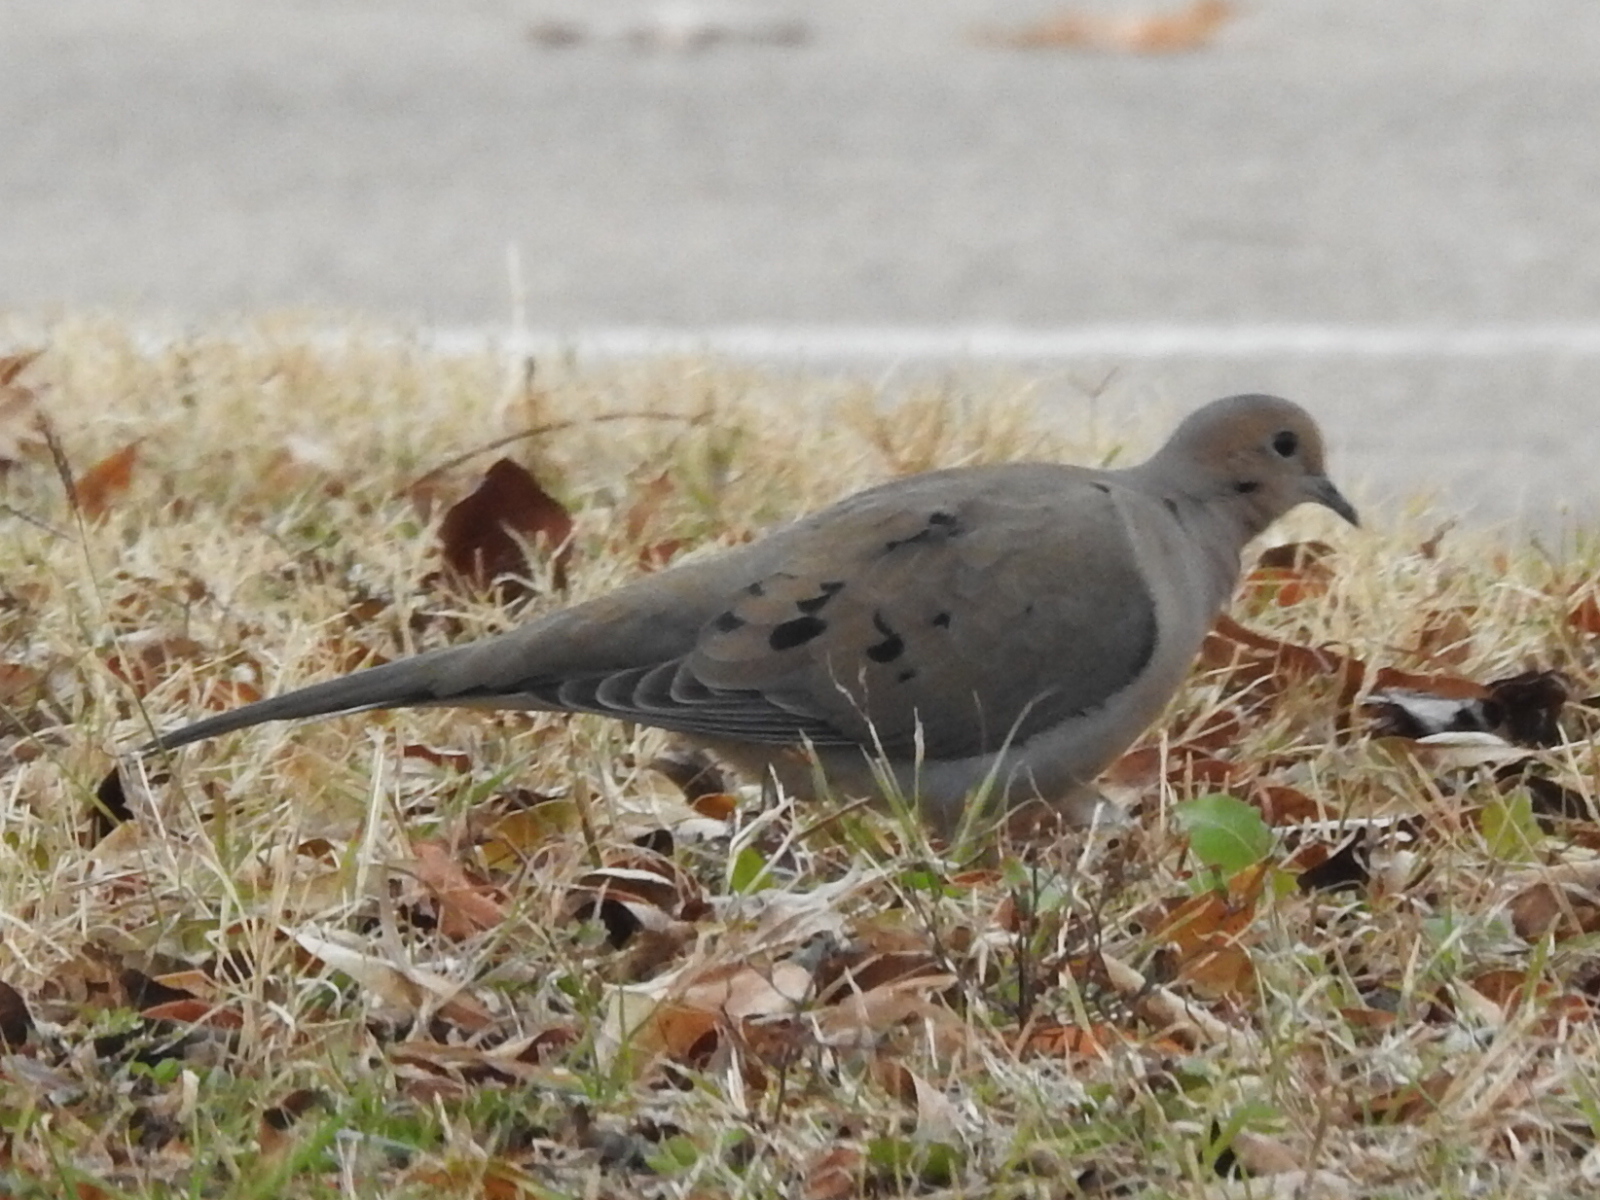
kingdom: Animalia
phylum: Chordata
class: Aves
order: Columbiformes
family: Columbidae
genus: Zenaida
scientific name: Zenaida macroura
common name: Mourning dove
